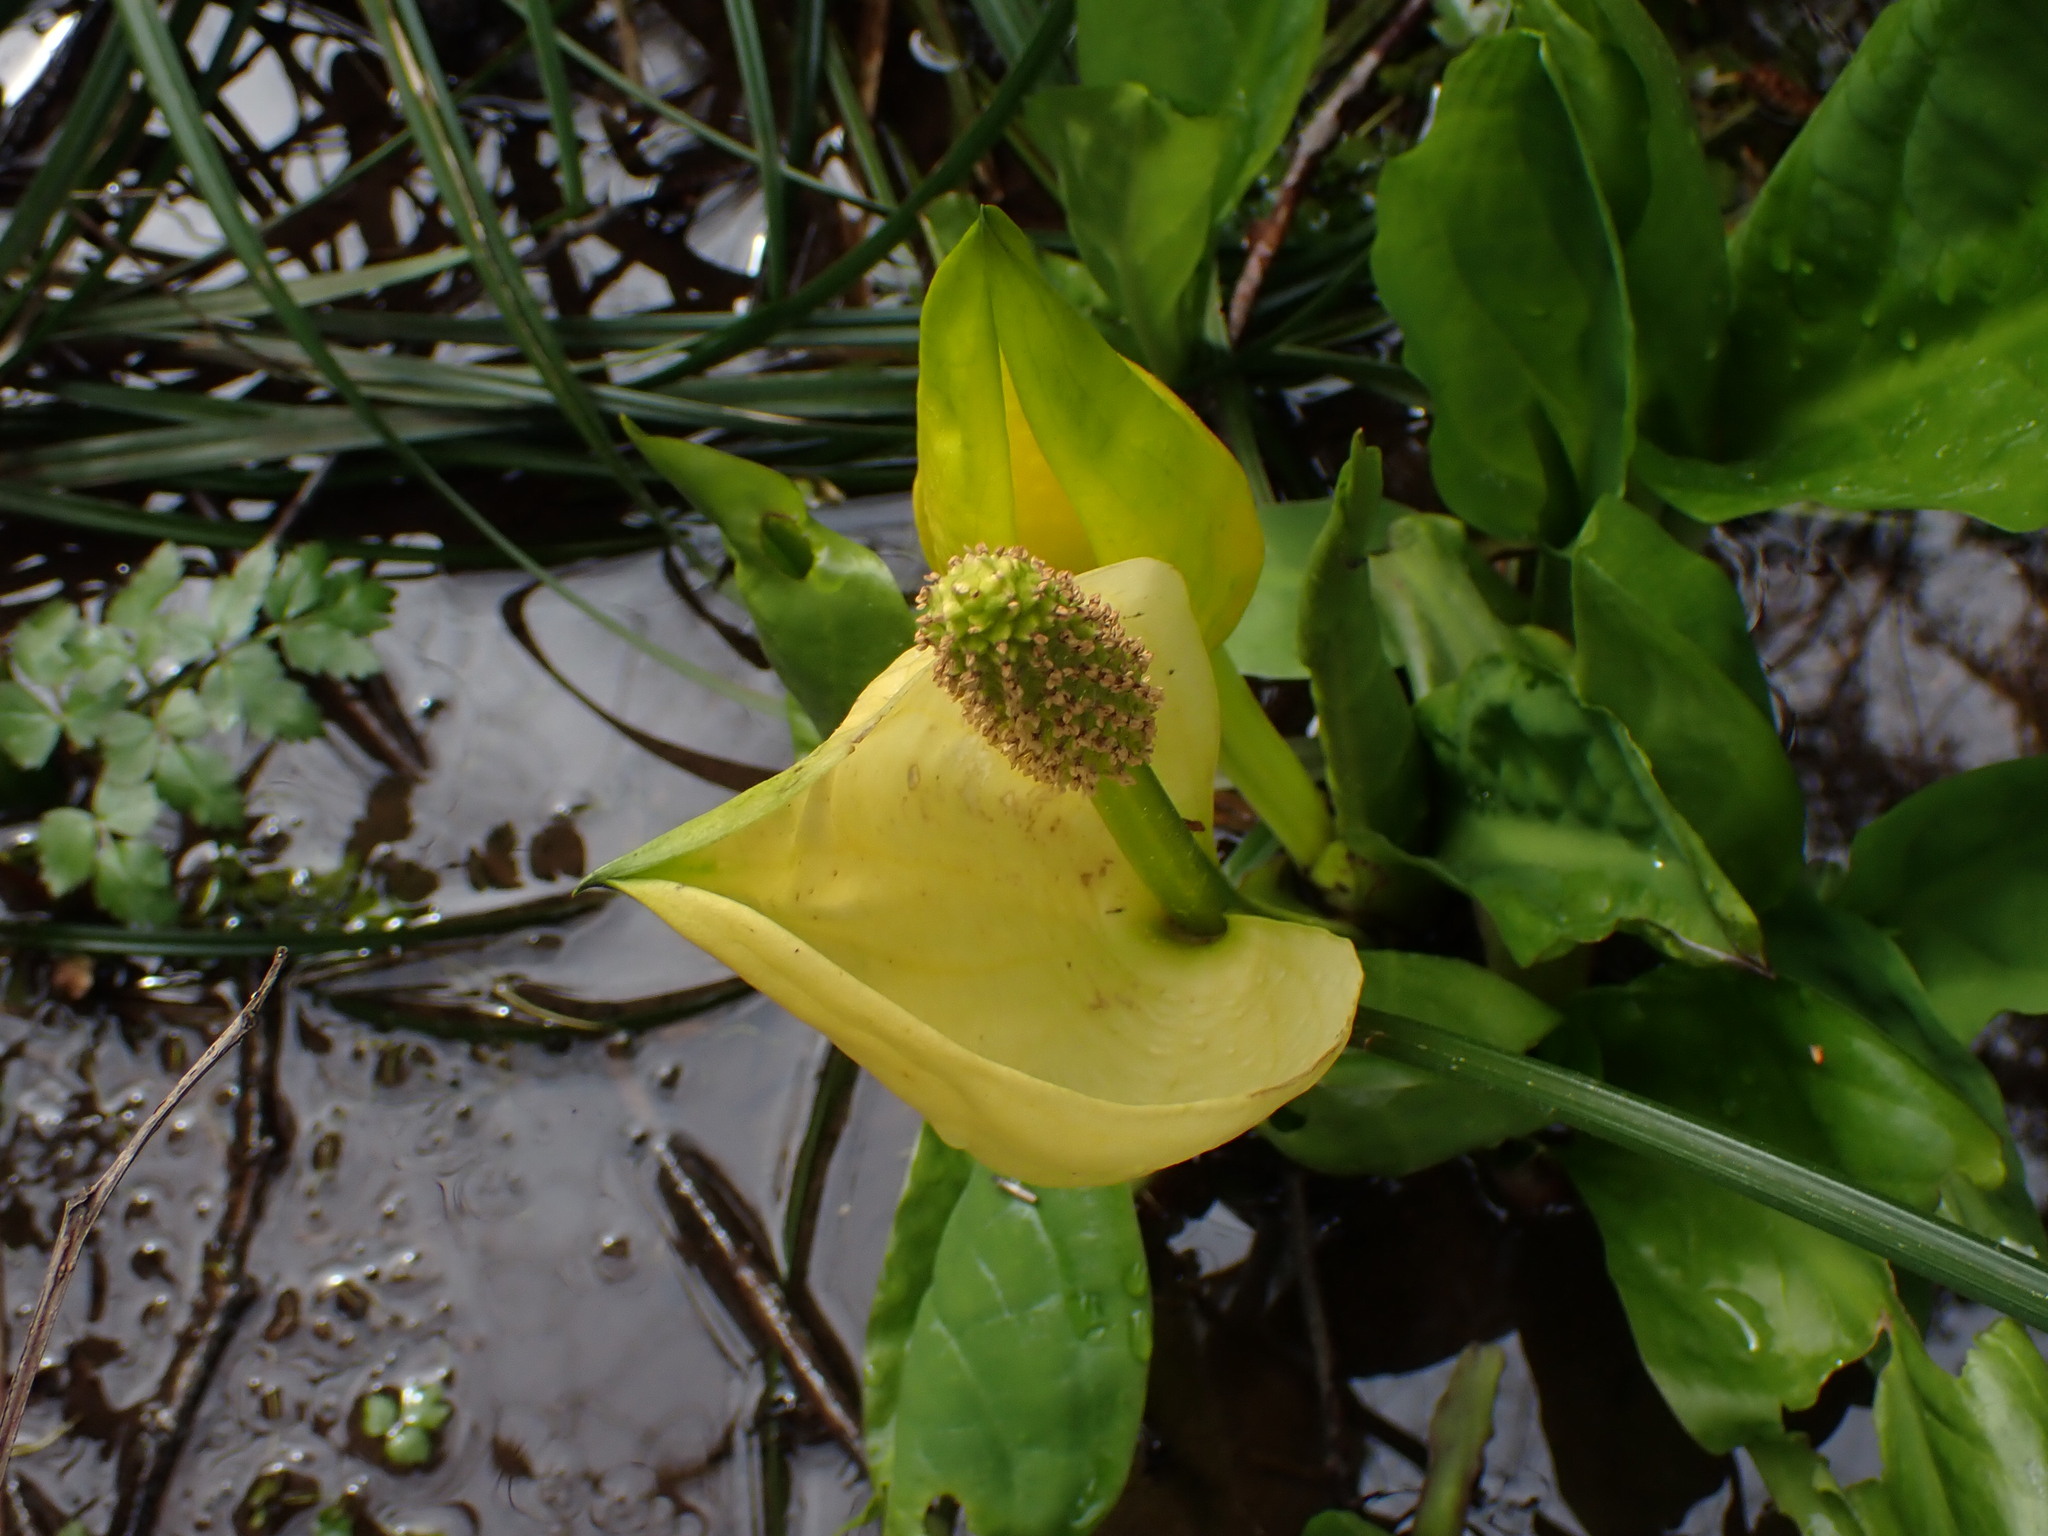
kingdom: Plantae
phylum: Tracheophyta
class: Liliopsida
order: Alismatales
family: Araceae
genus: Lysichiton
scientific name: Lysichiton americanus
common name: American skunk cabbage
